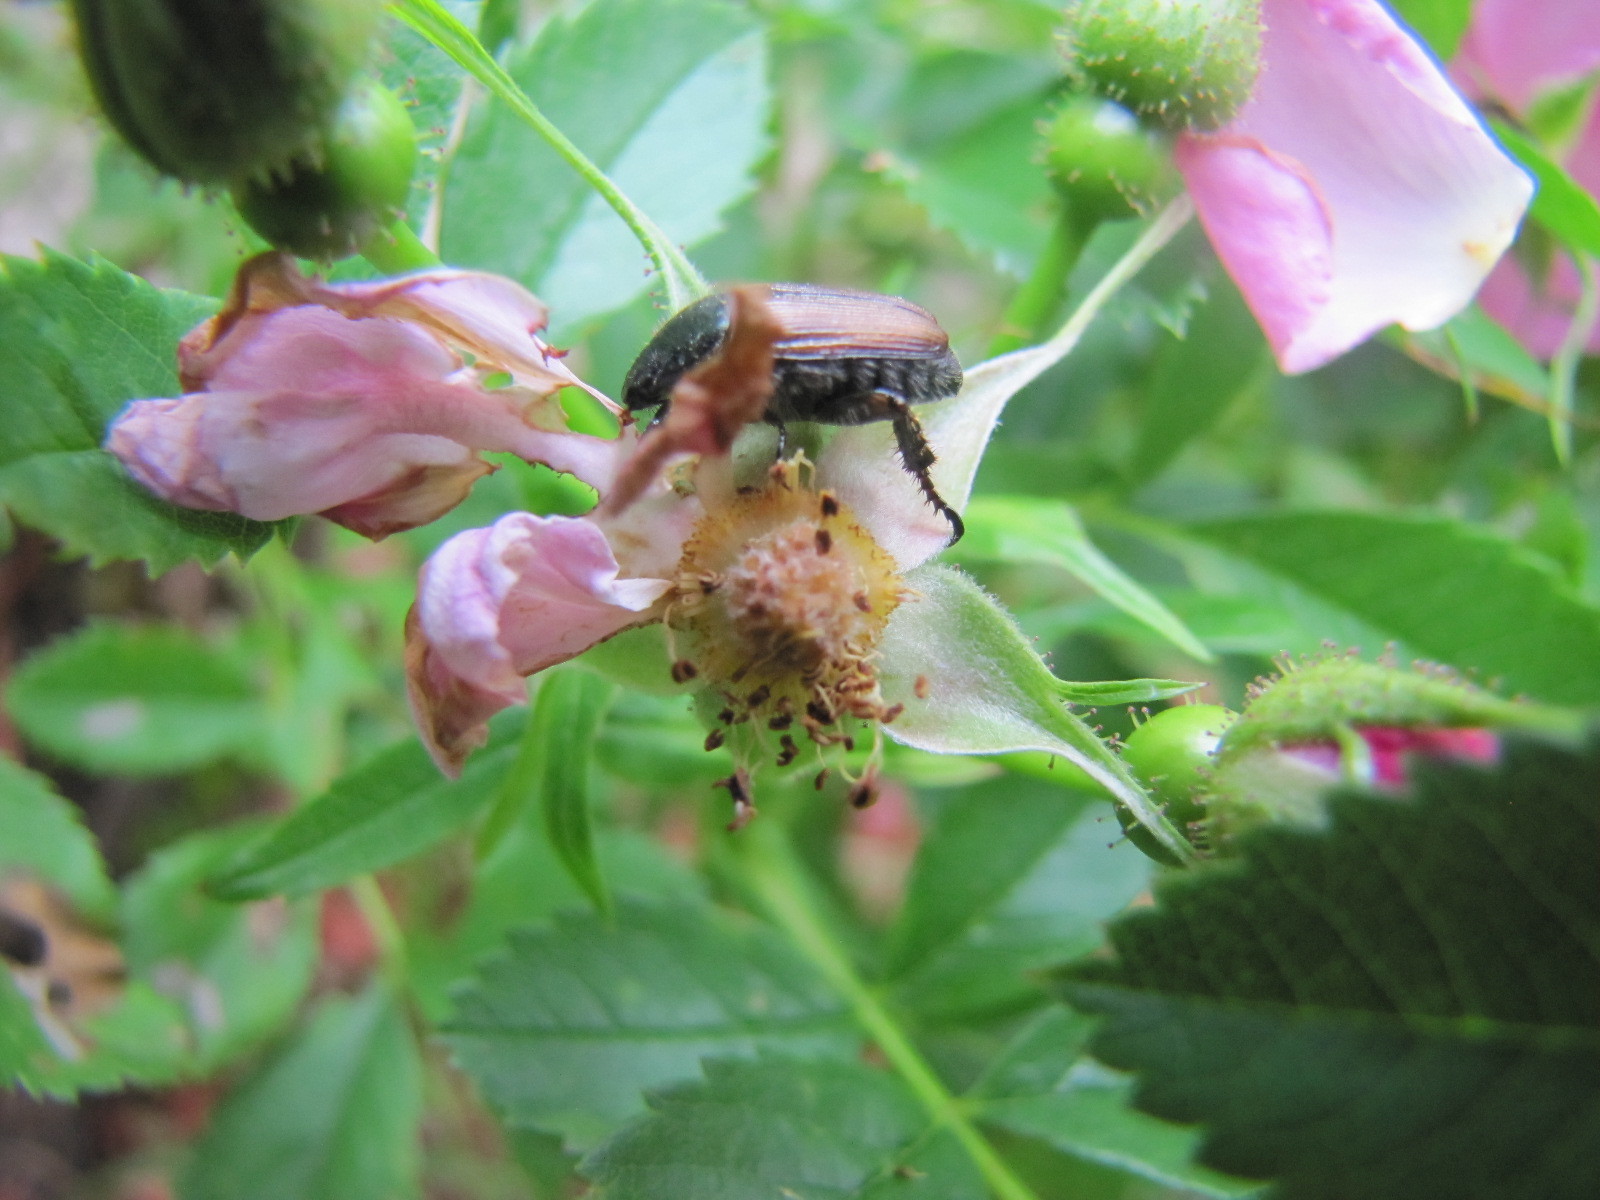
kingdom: Animalia
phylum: Arthropoda
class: Insecta
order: Coleoptera
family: Scarabaeidae
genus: Popillia
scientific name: Popillia japonica
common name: Japanese beetle
